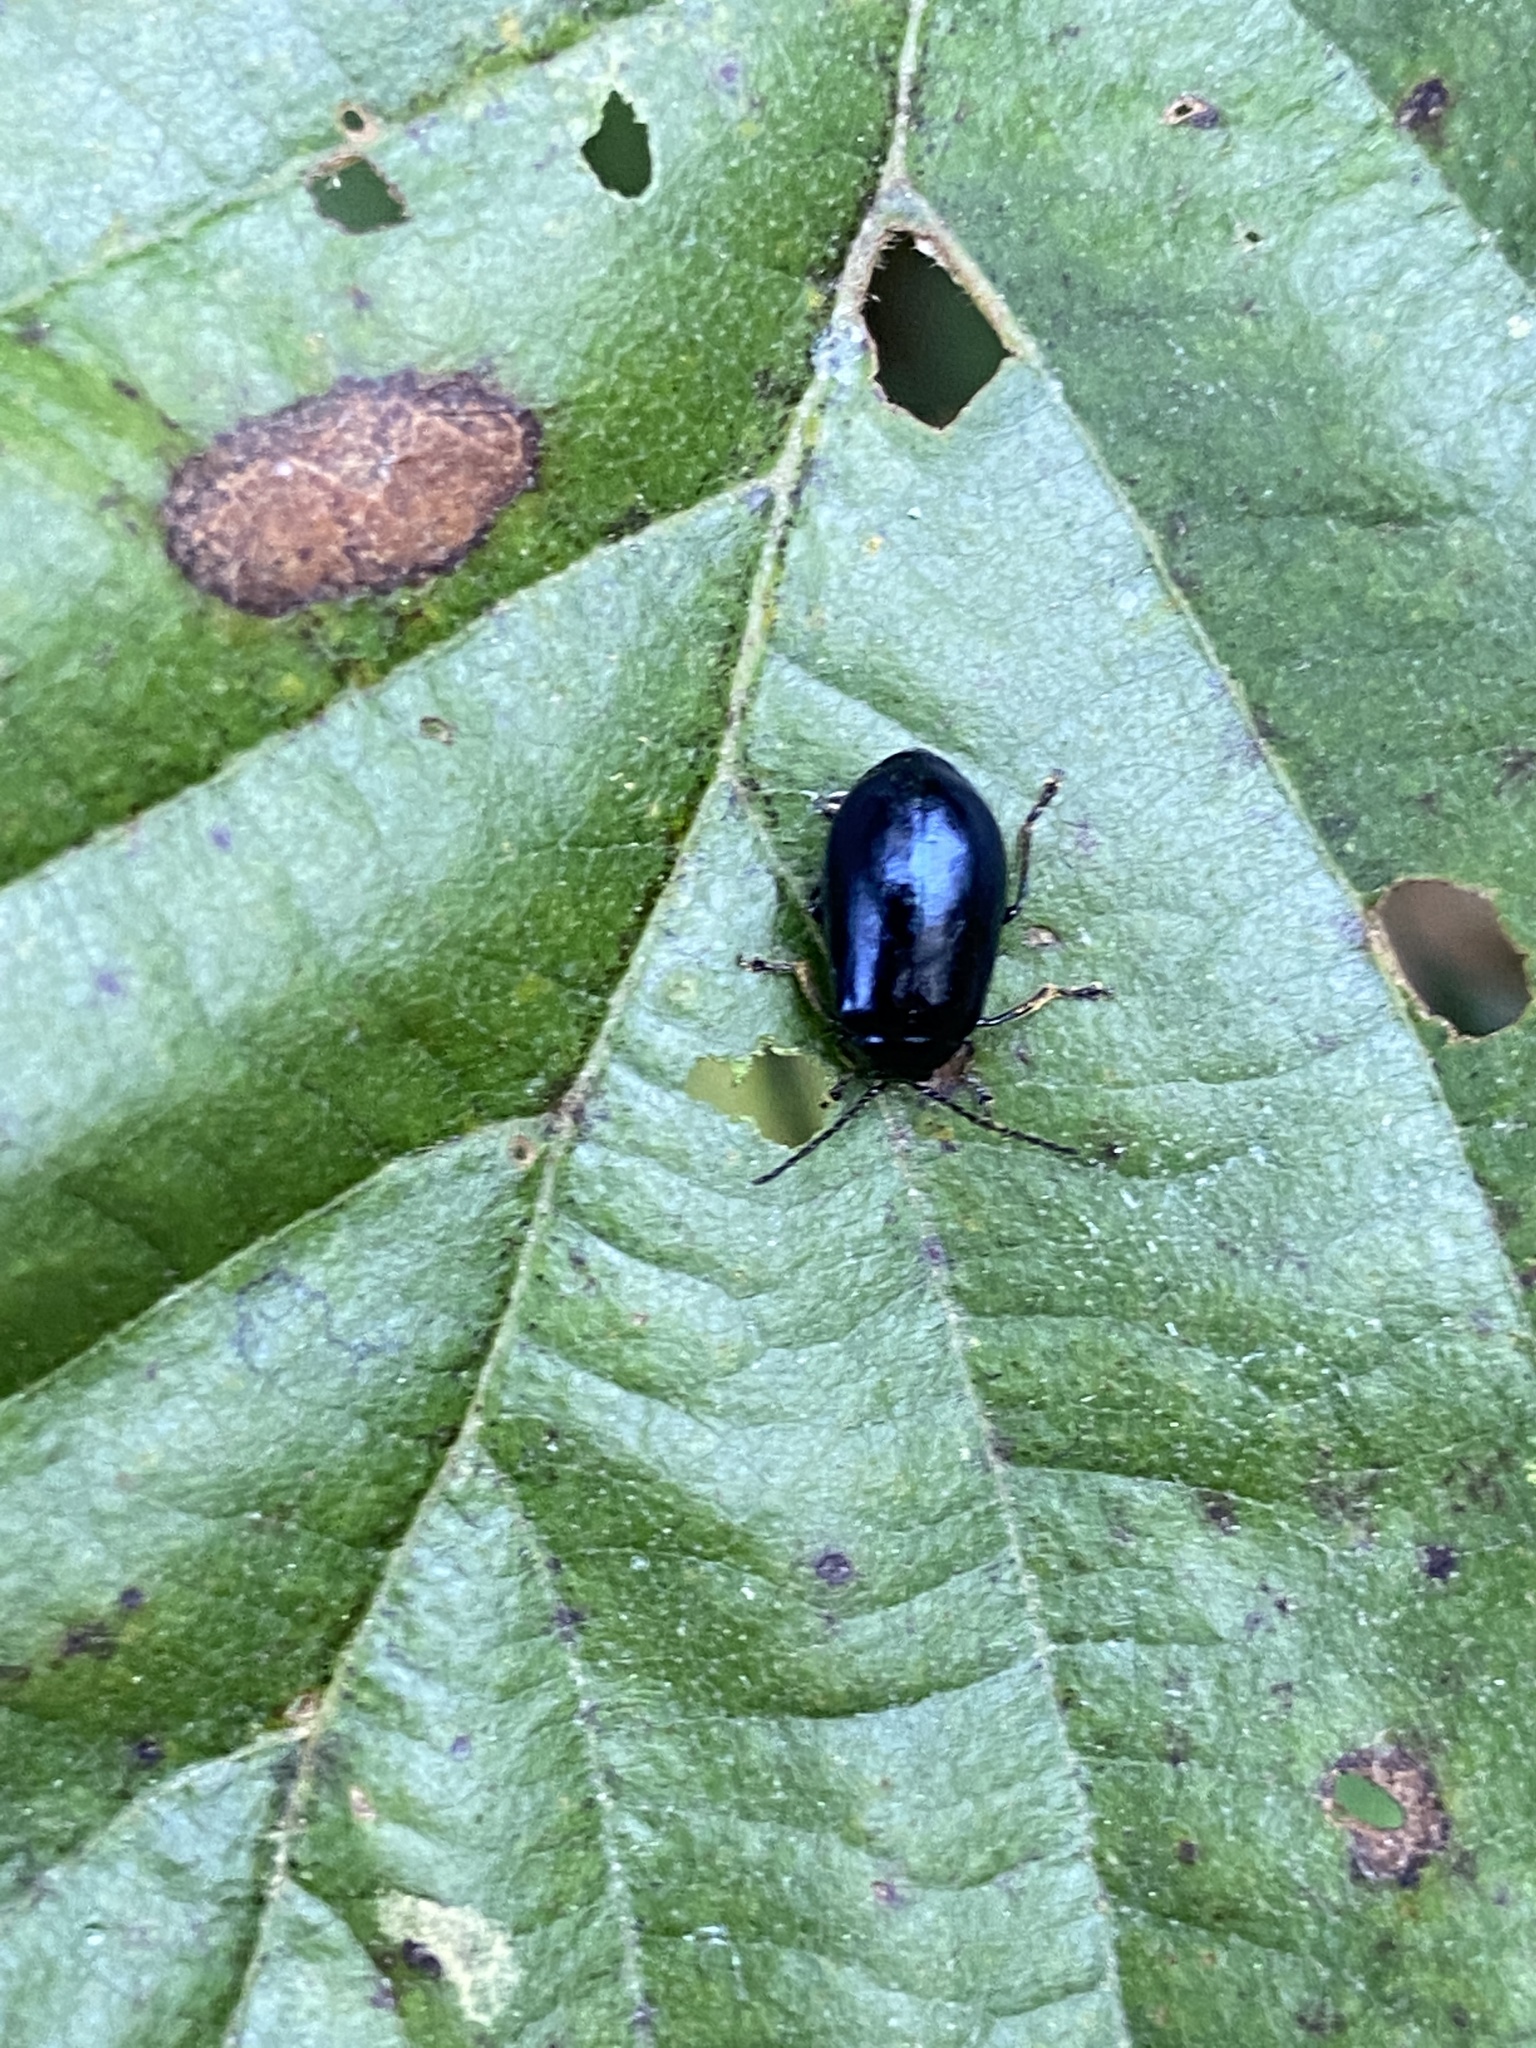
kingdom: Animalia
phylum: Arthropoda
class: Insecta
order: Coleoptera
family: Chrysomelidae
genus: Agelastica
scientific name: Agelastica alni
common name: Alder leaf beetle
